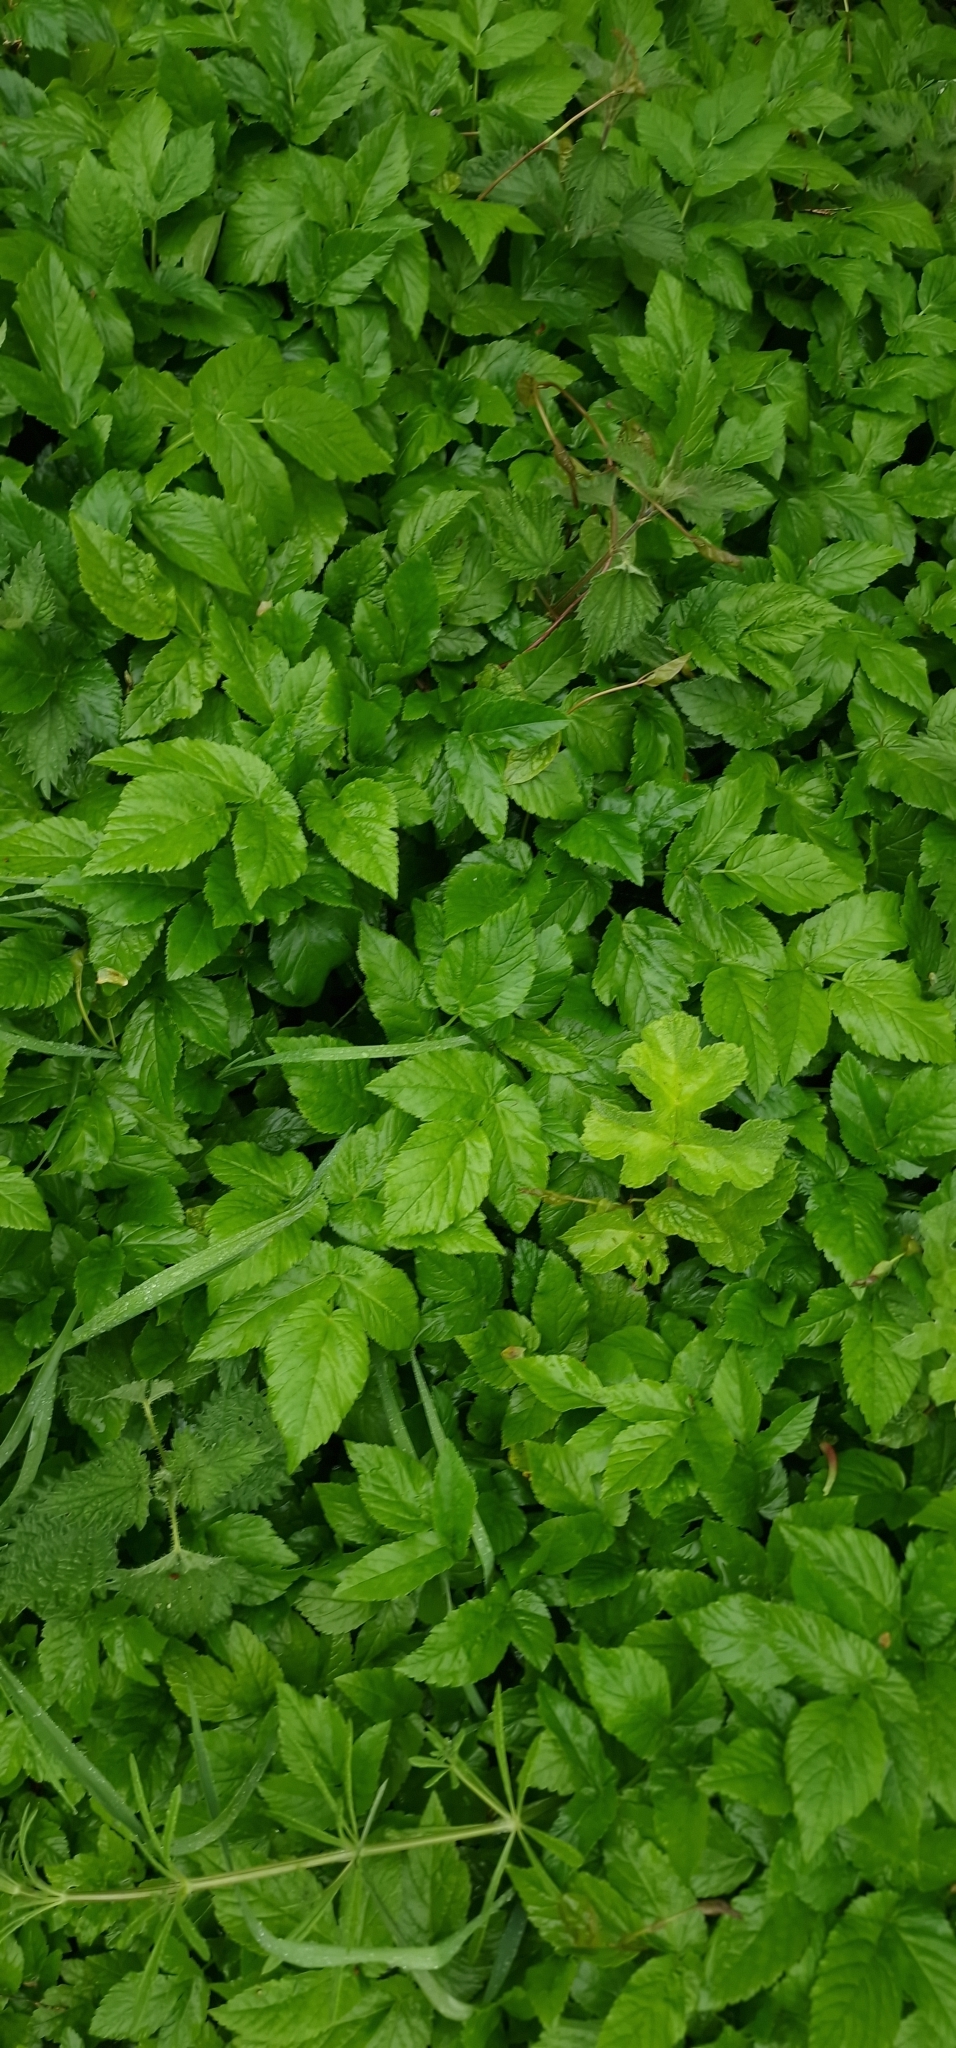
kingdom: Plantae
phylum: Tracheophyta
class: Magnoliopsida
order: Apiales
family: Apiaceae
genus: Aegopodium
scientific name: Aegopodium podagraria
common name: Ground-elder
